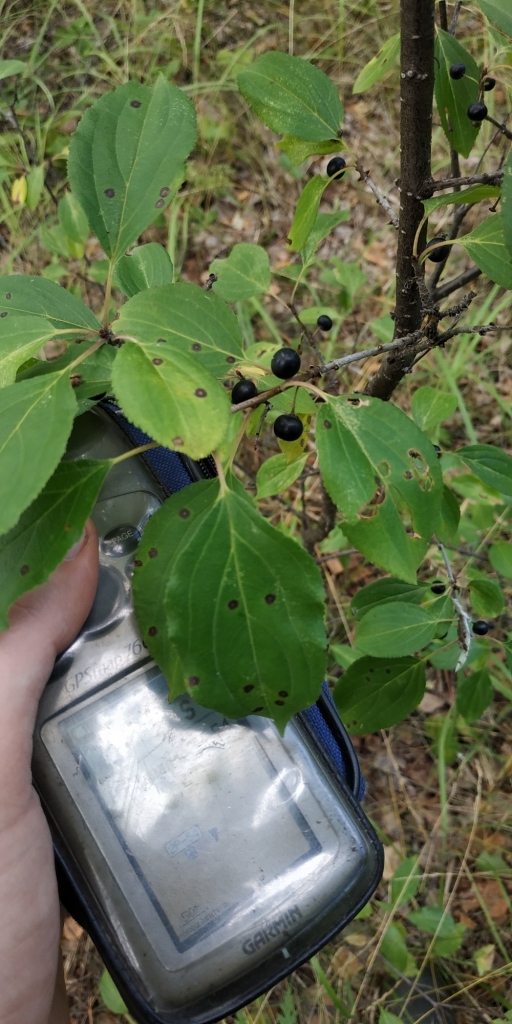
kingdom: Plantae
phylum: Tracheophyta
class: Magnoliopsida
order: Rosales
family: Rhamnaceae
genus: Rhamnus
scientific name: Rhamnus cathartica
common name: Common buckthorn
